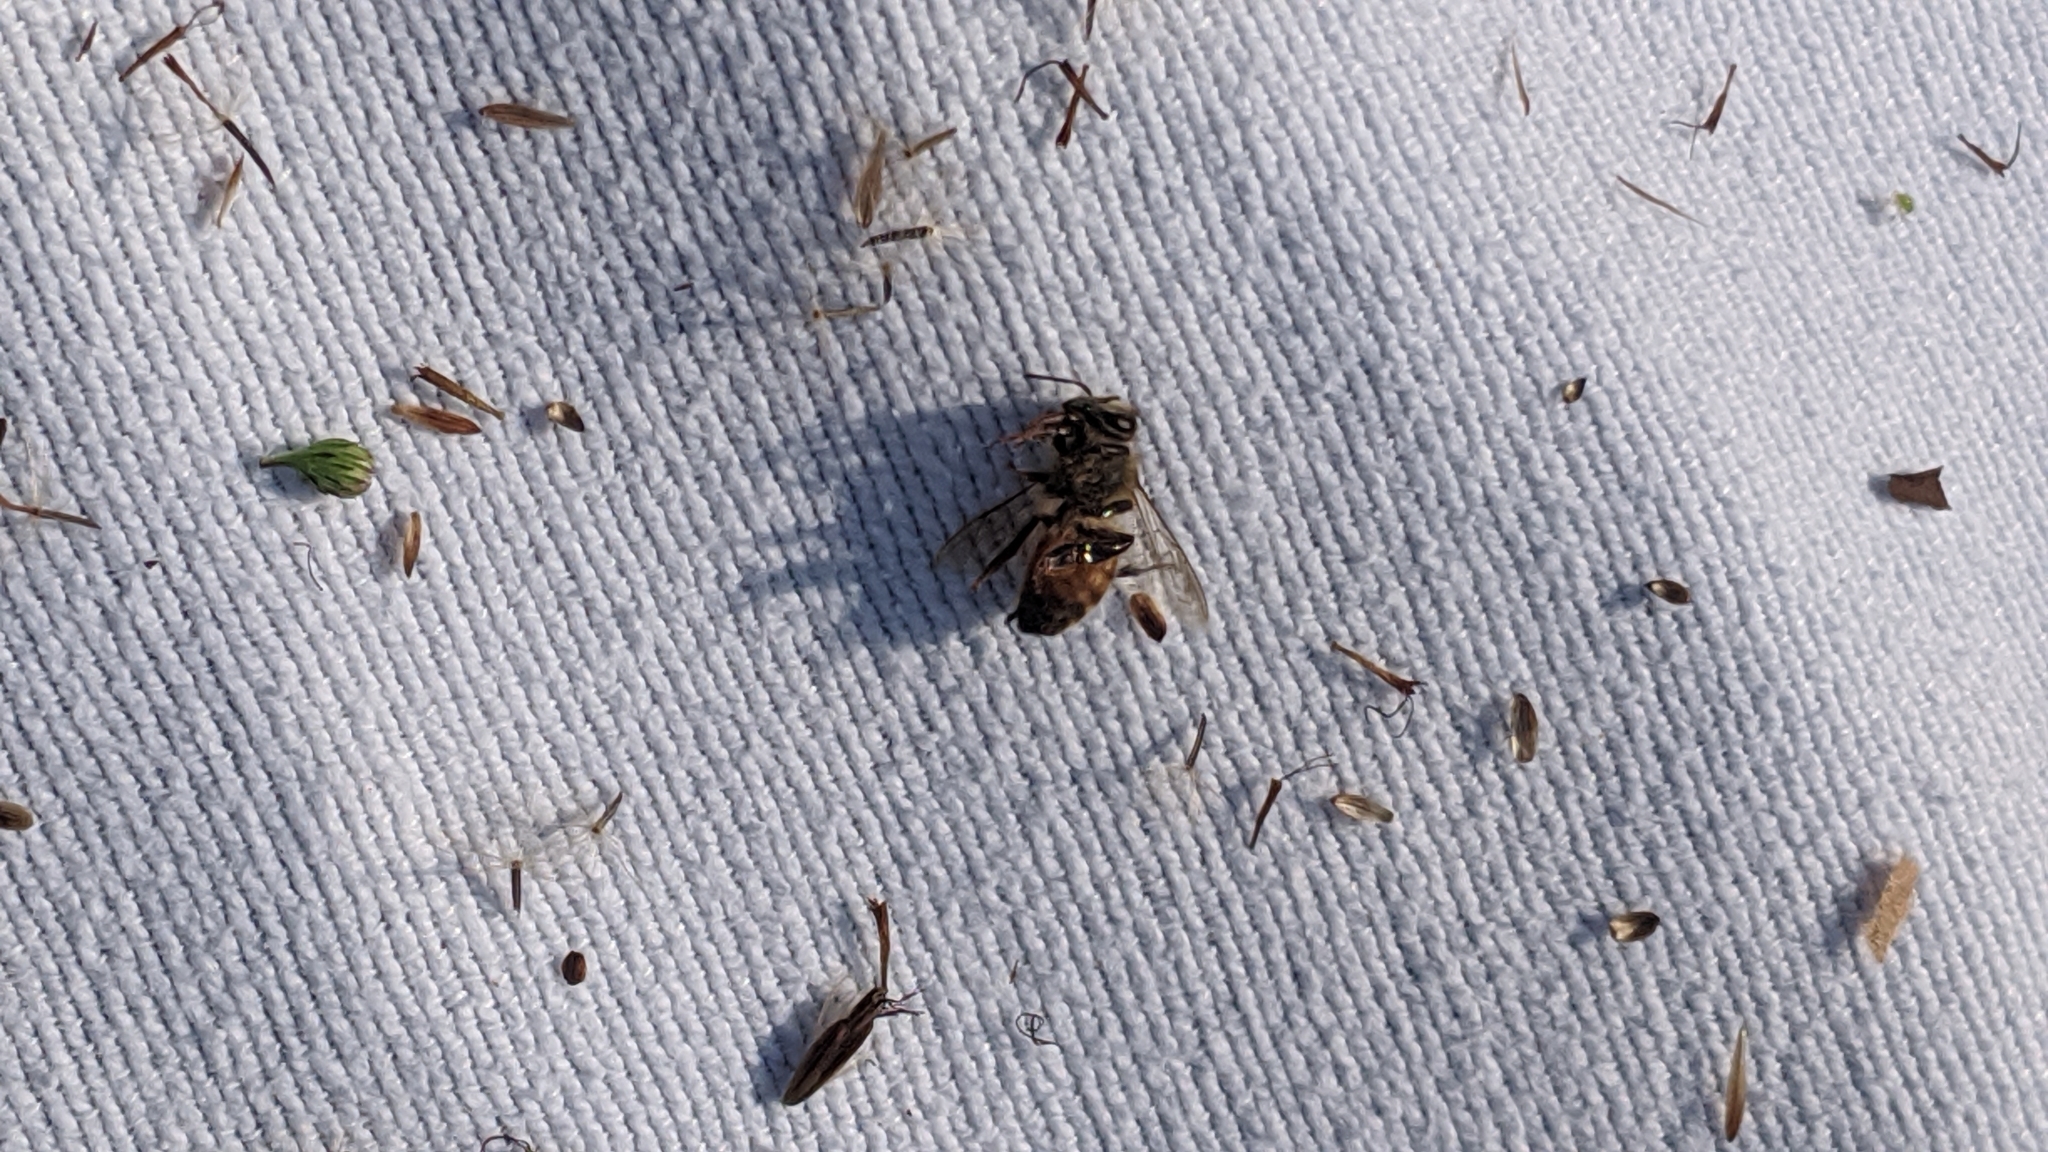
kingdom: Animalia
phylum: Arthropoda
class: Insecta
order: Hymenoptera
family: Apidae
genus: Apis
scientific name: Apis mellifera
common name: Honey bee
